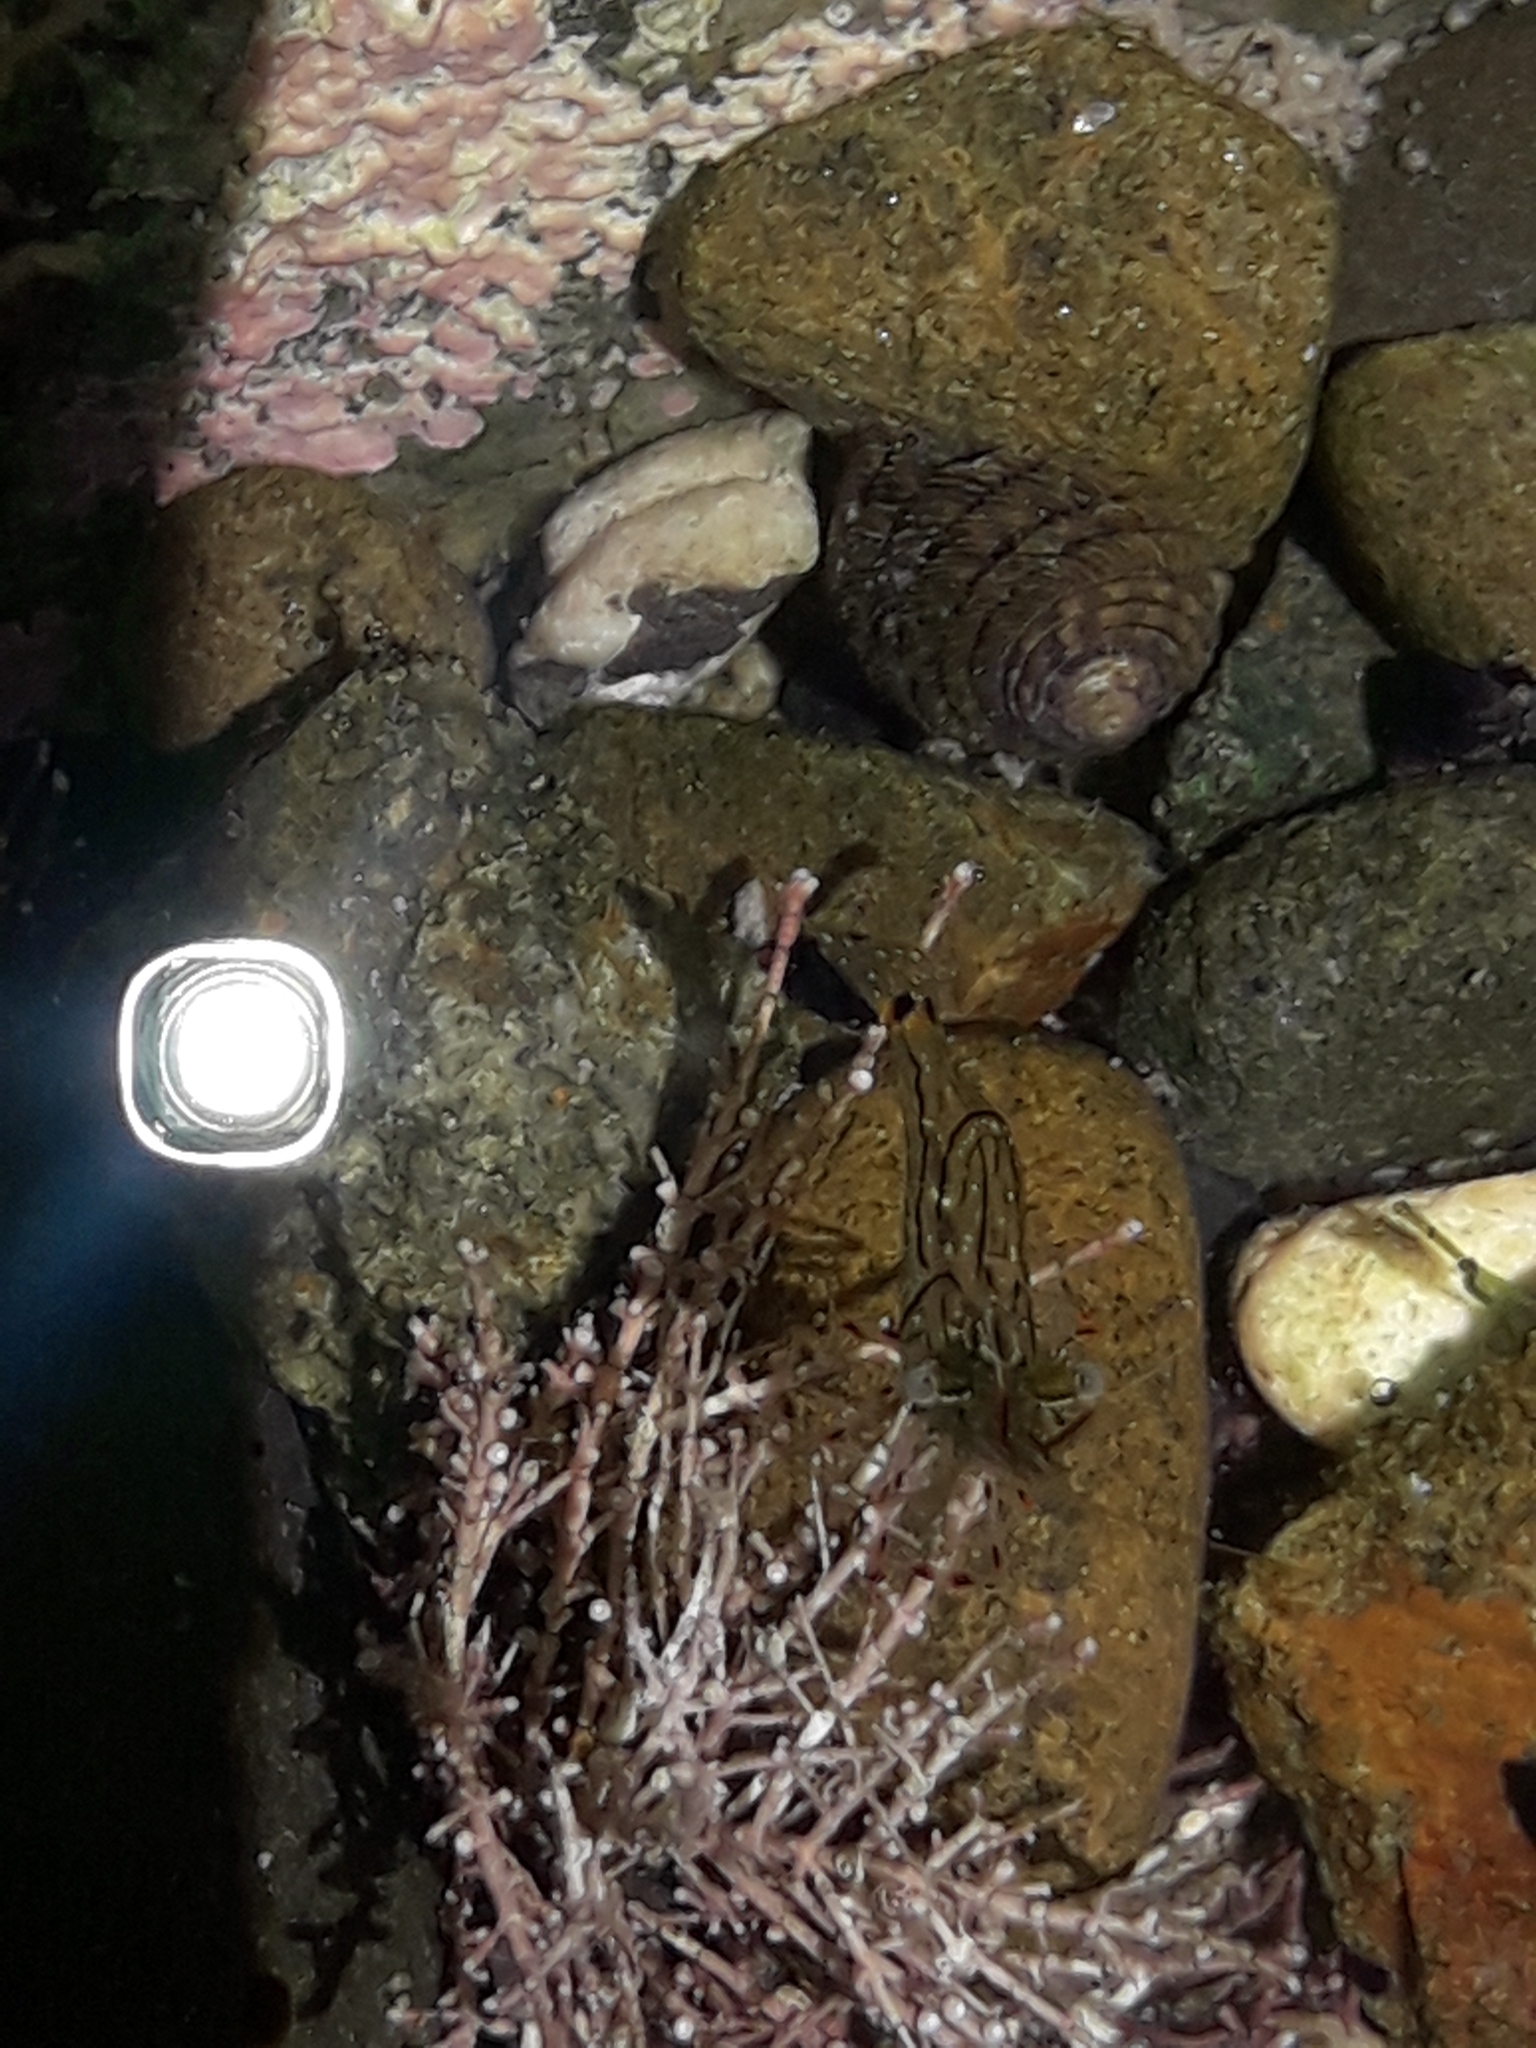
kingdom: Animalia
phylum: Arthropoda
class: Malacostraca
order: Decapoda
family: Palaemonidae
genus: Palaemon
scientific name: Palaemon affinis
